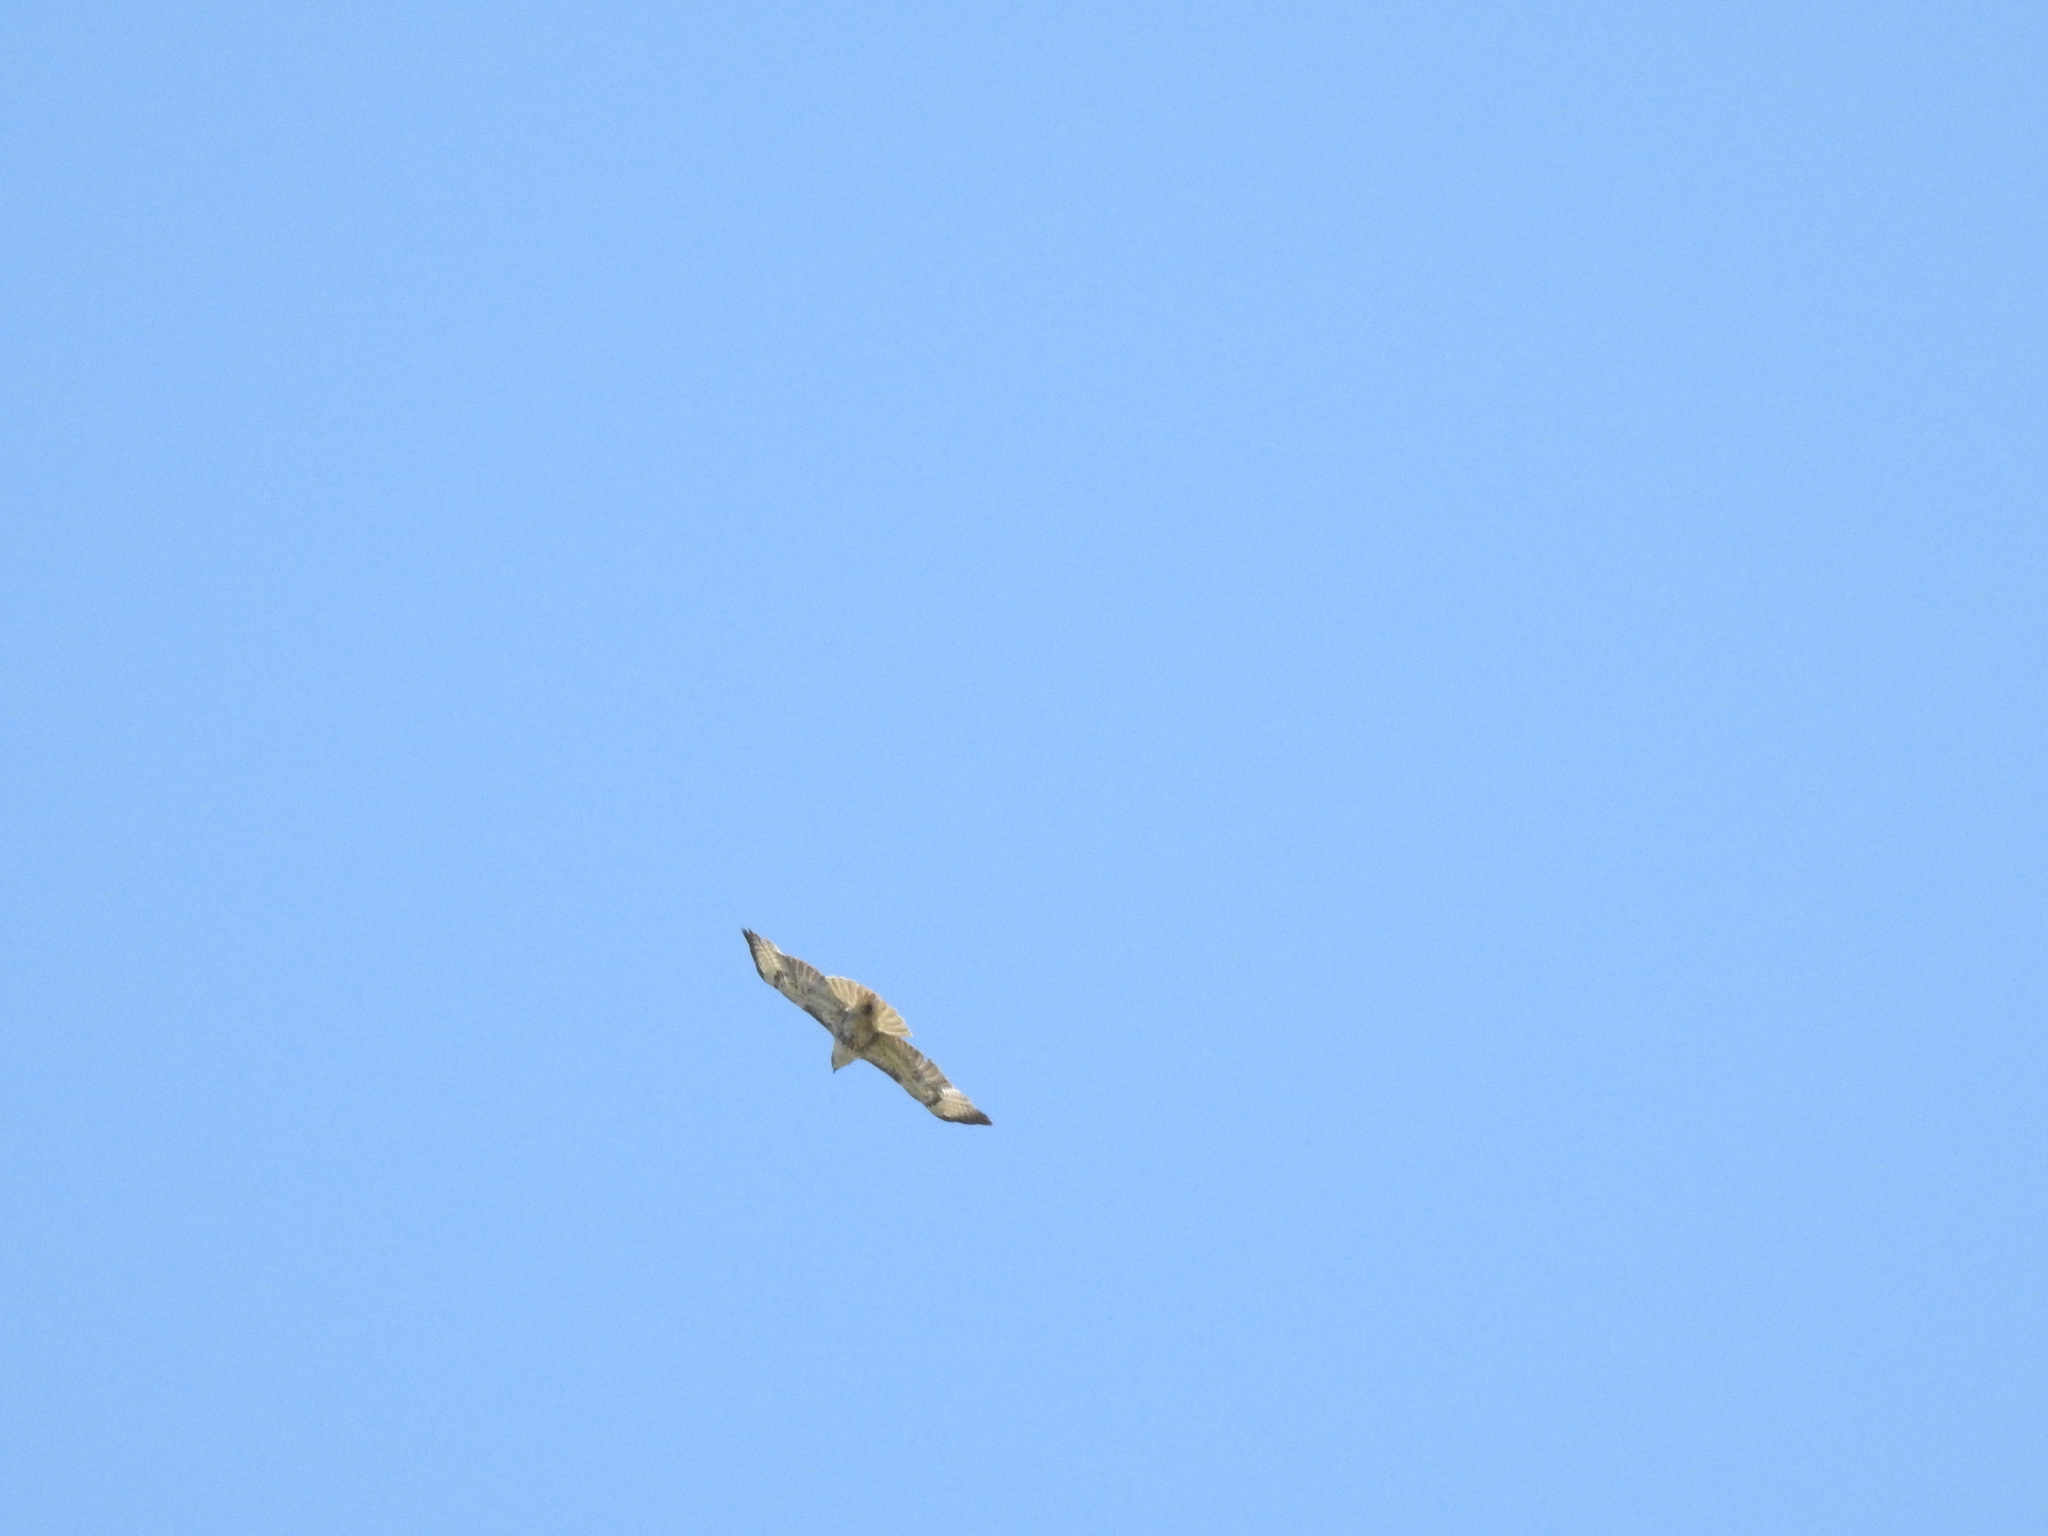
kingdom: Animalia
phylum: Chordata
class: Aves
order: Accipitriformes
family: Accipitridae
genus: Buteo
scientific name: Buteo jamaicensis
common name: Red-tailed hawk
